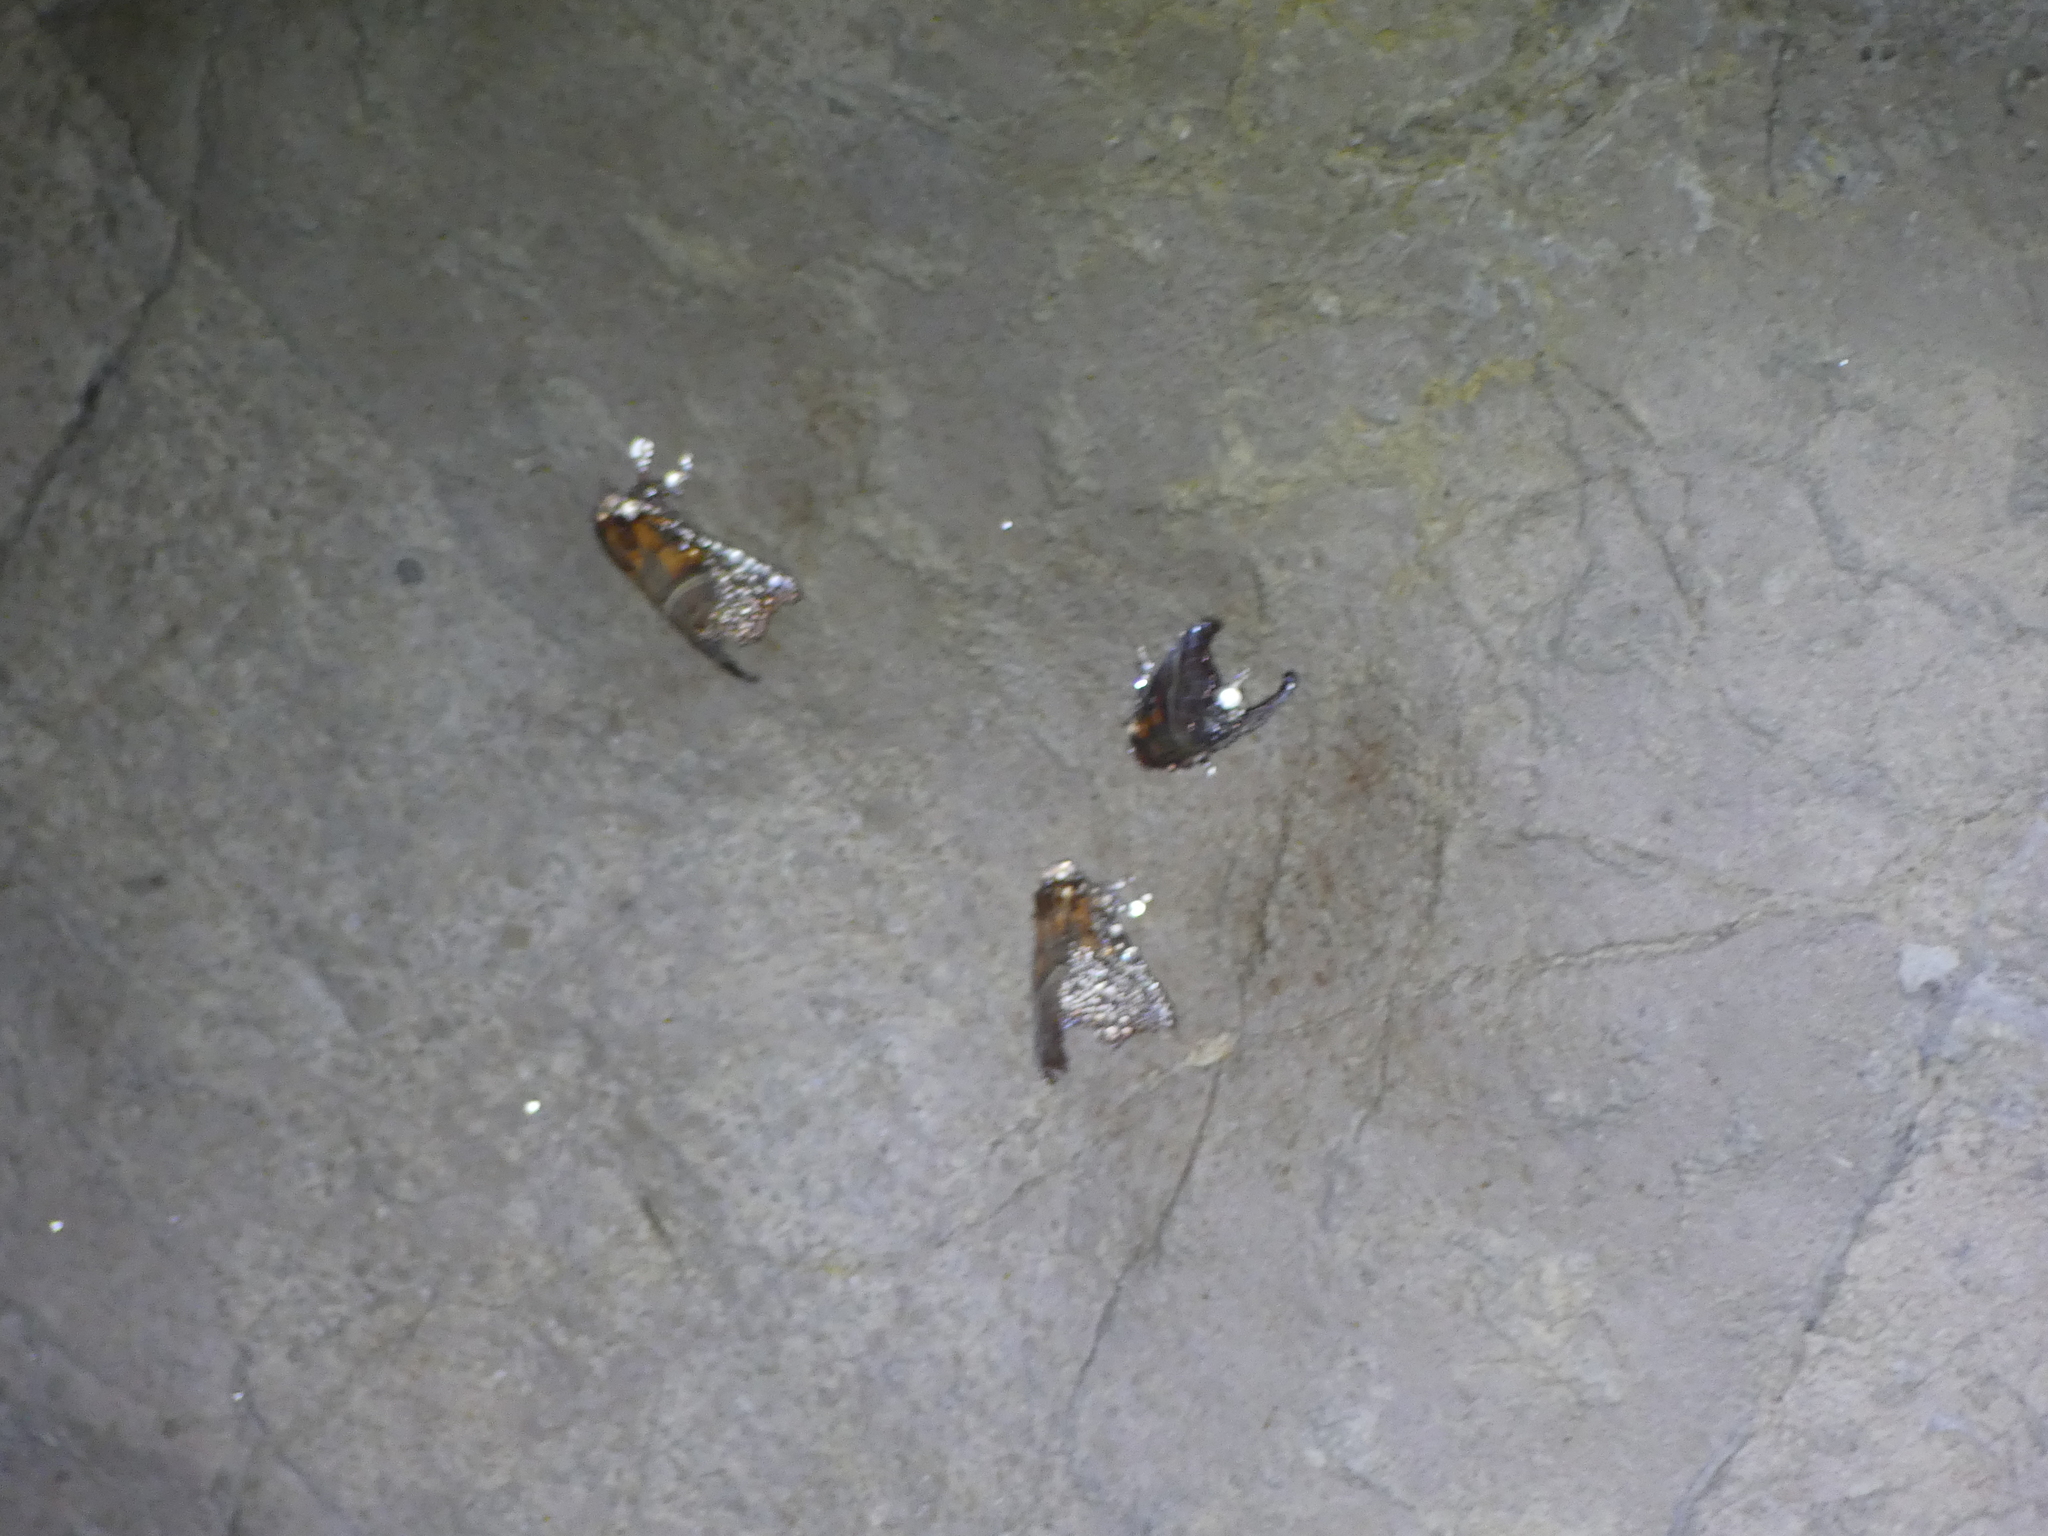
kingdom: Animalia
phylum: Arthropoda
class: Insecta
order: Lepidoptera
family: Erebidae
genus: Scoliopteryx
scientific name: Scoliopteryx libatrix
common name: Herald
